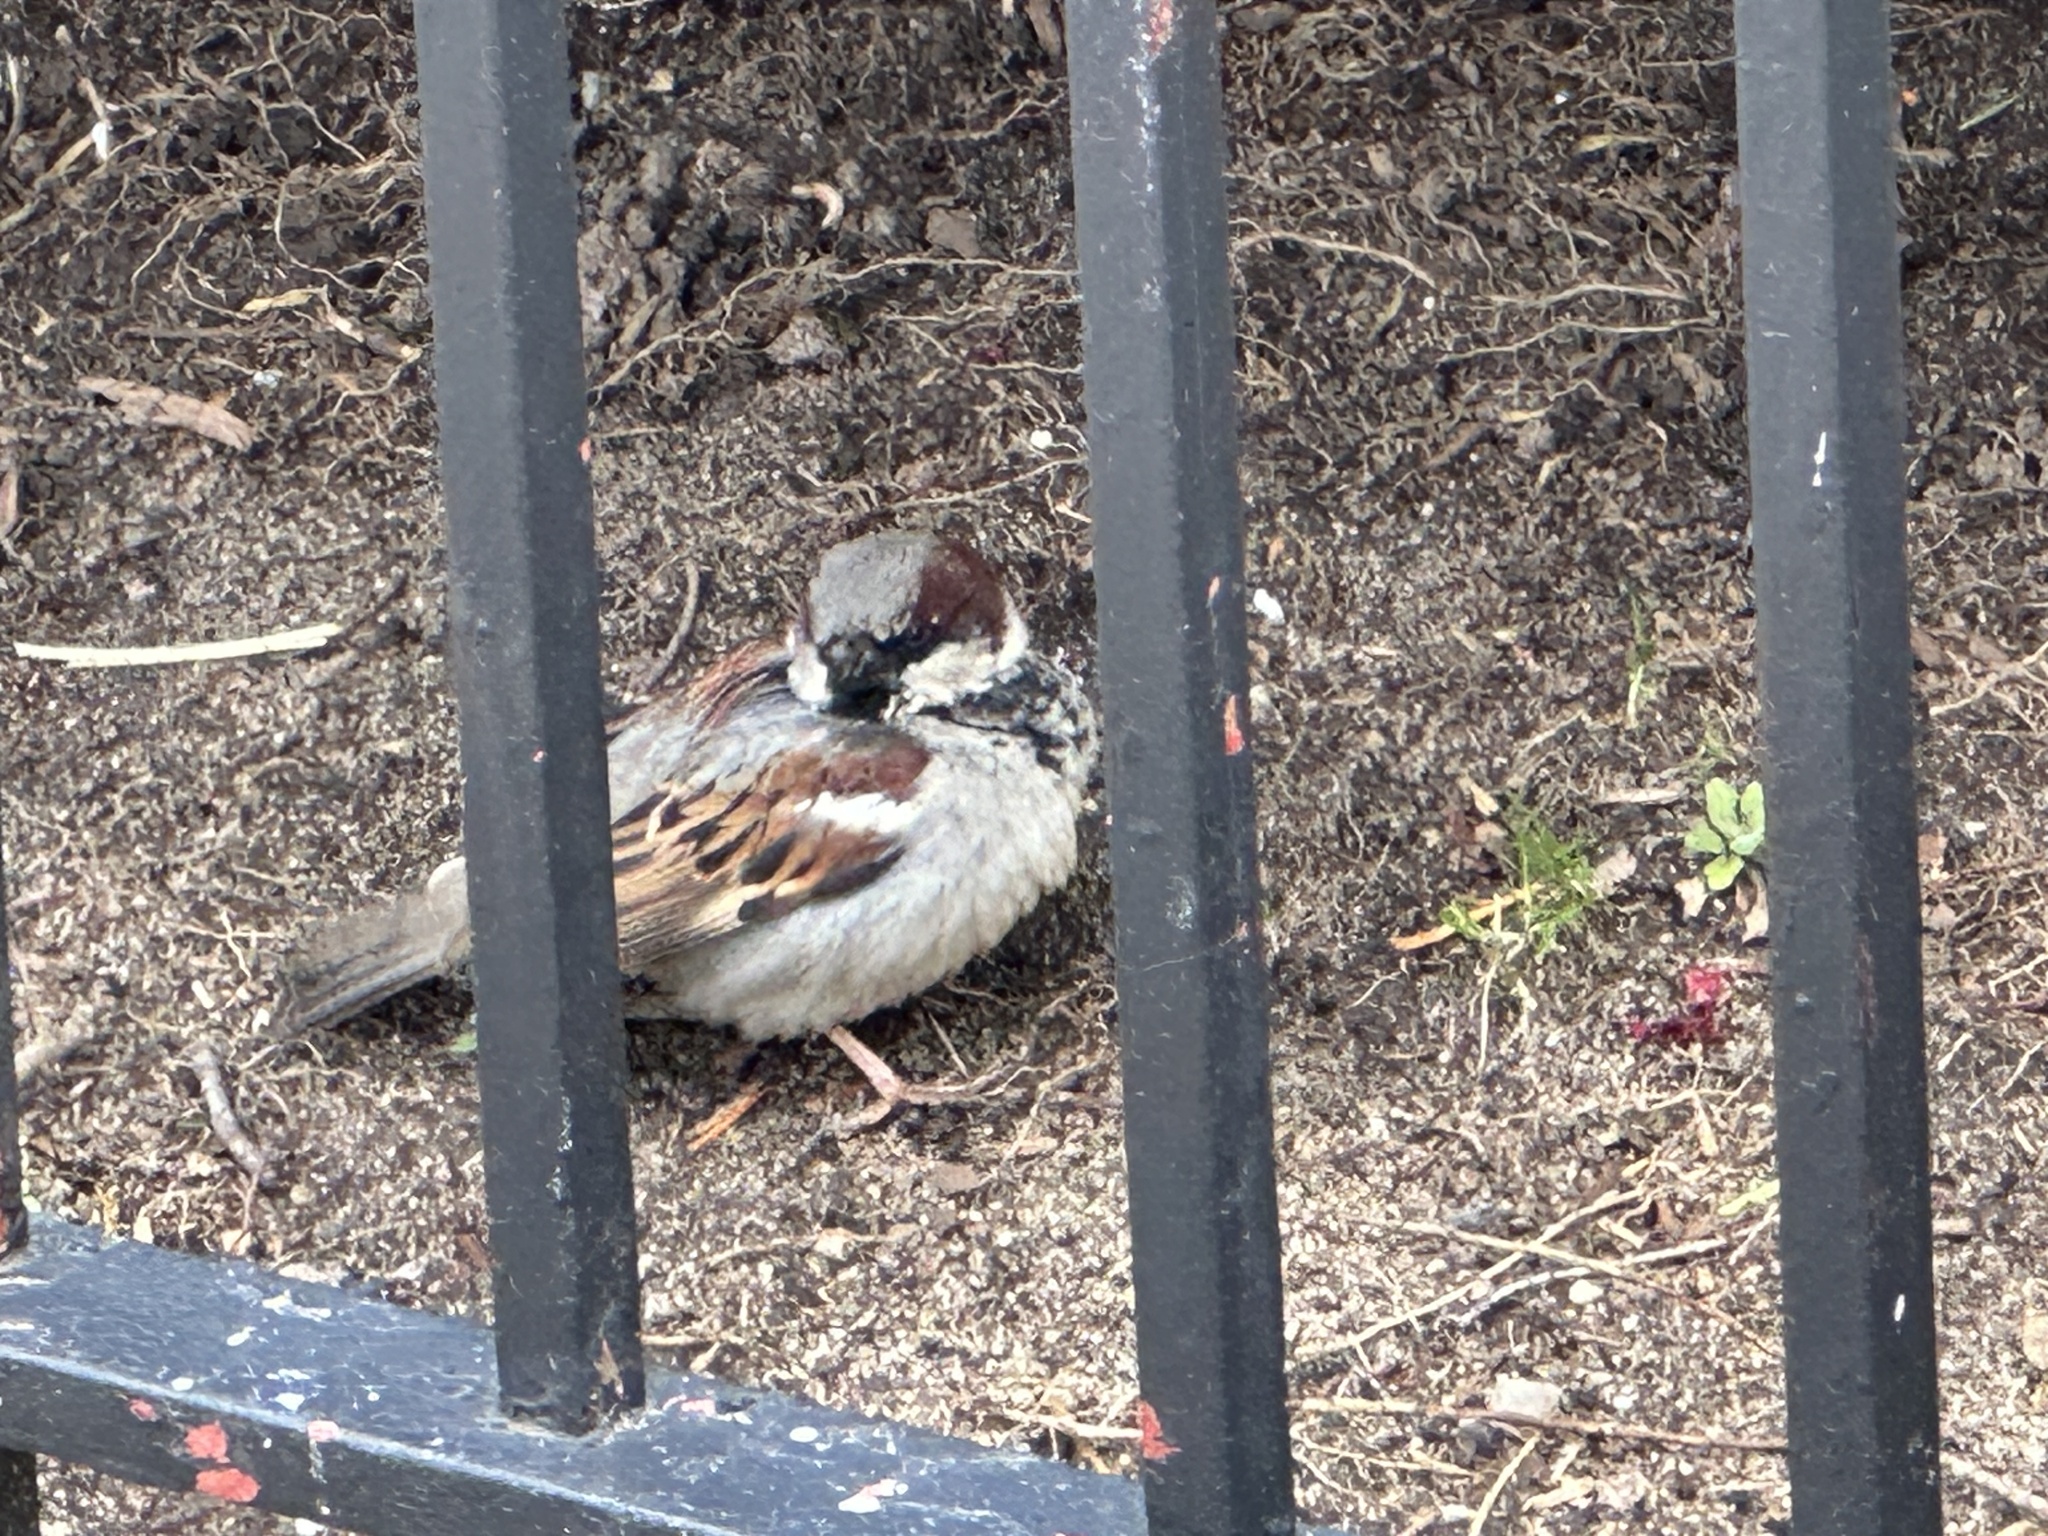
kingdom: Animalia
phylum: Chordata
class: Aves
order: Passeriformes
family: Passeridae
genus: Passer
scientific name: Passer domesticus
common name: House sparrow
